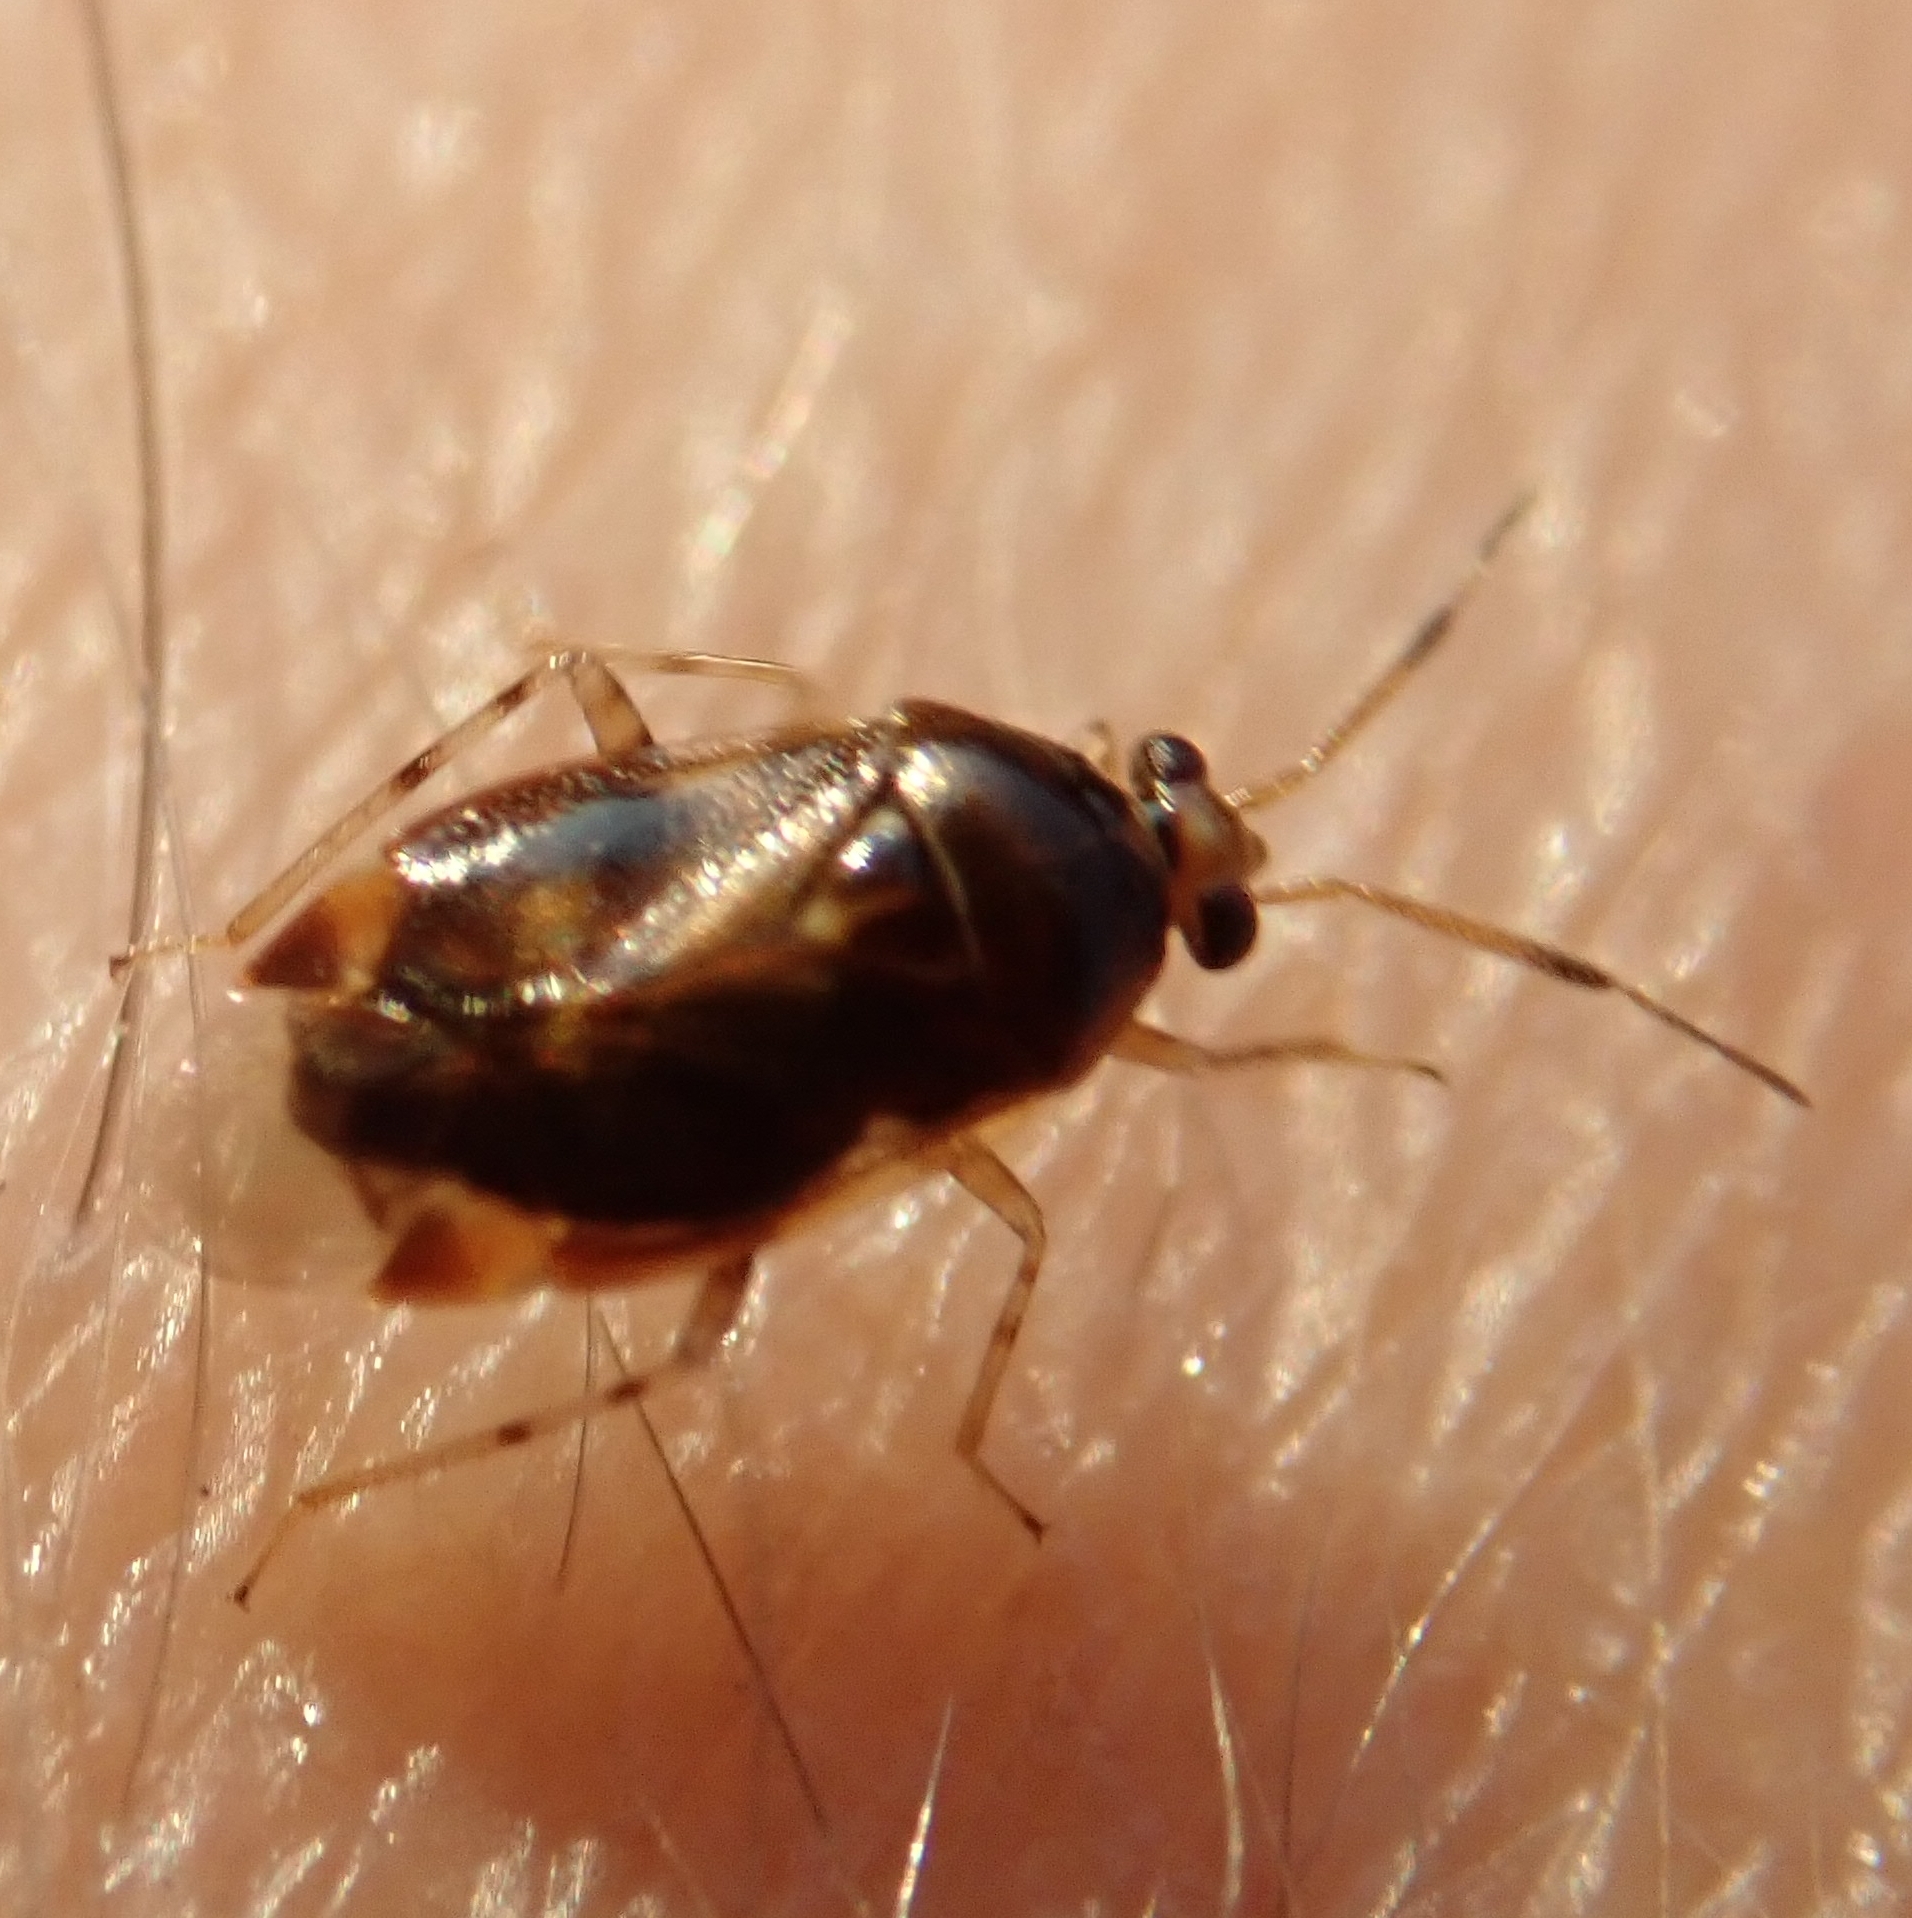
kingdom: Animalia
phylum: Arthropoda
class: Insecta
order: Hemiptera
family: Miridae
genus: Deraeocoris
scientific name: Deraeocoris lutescens
